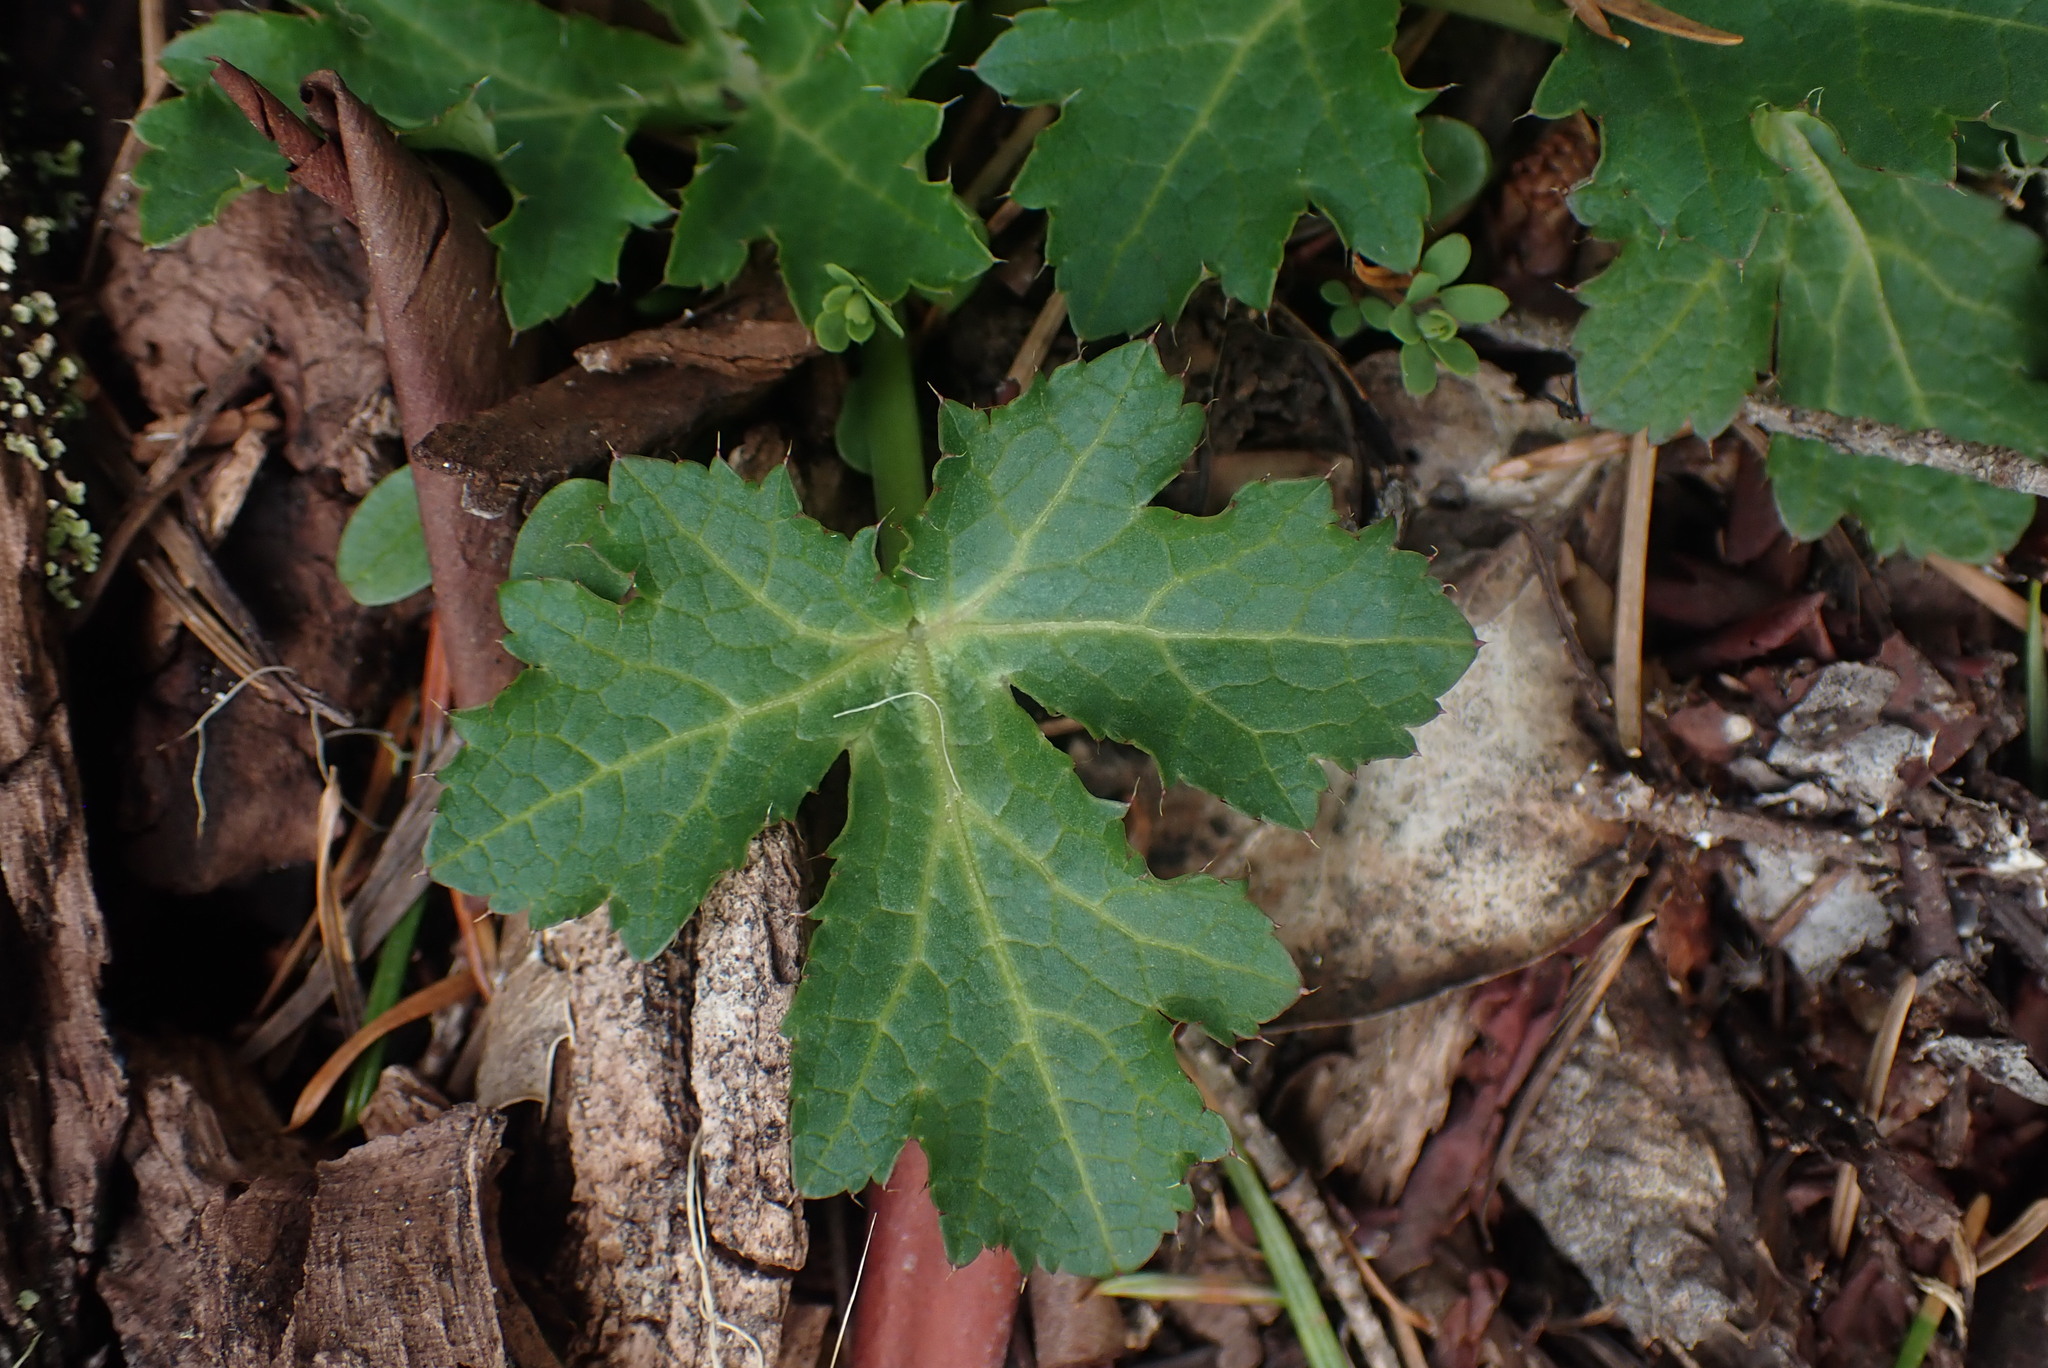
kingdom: Plantae
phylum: Tracheophyta
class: Magnoliopsida
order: Apiales
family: Apiaceae
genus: Sanicula
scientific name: Sanicula crassicaulis
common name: Western snakeroot
